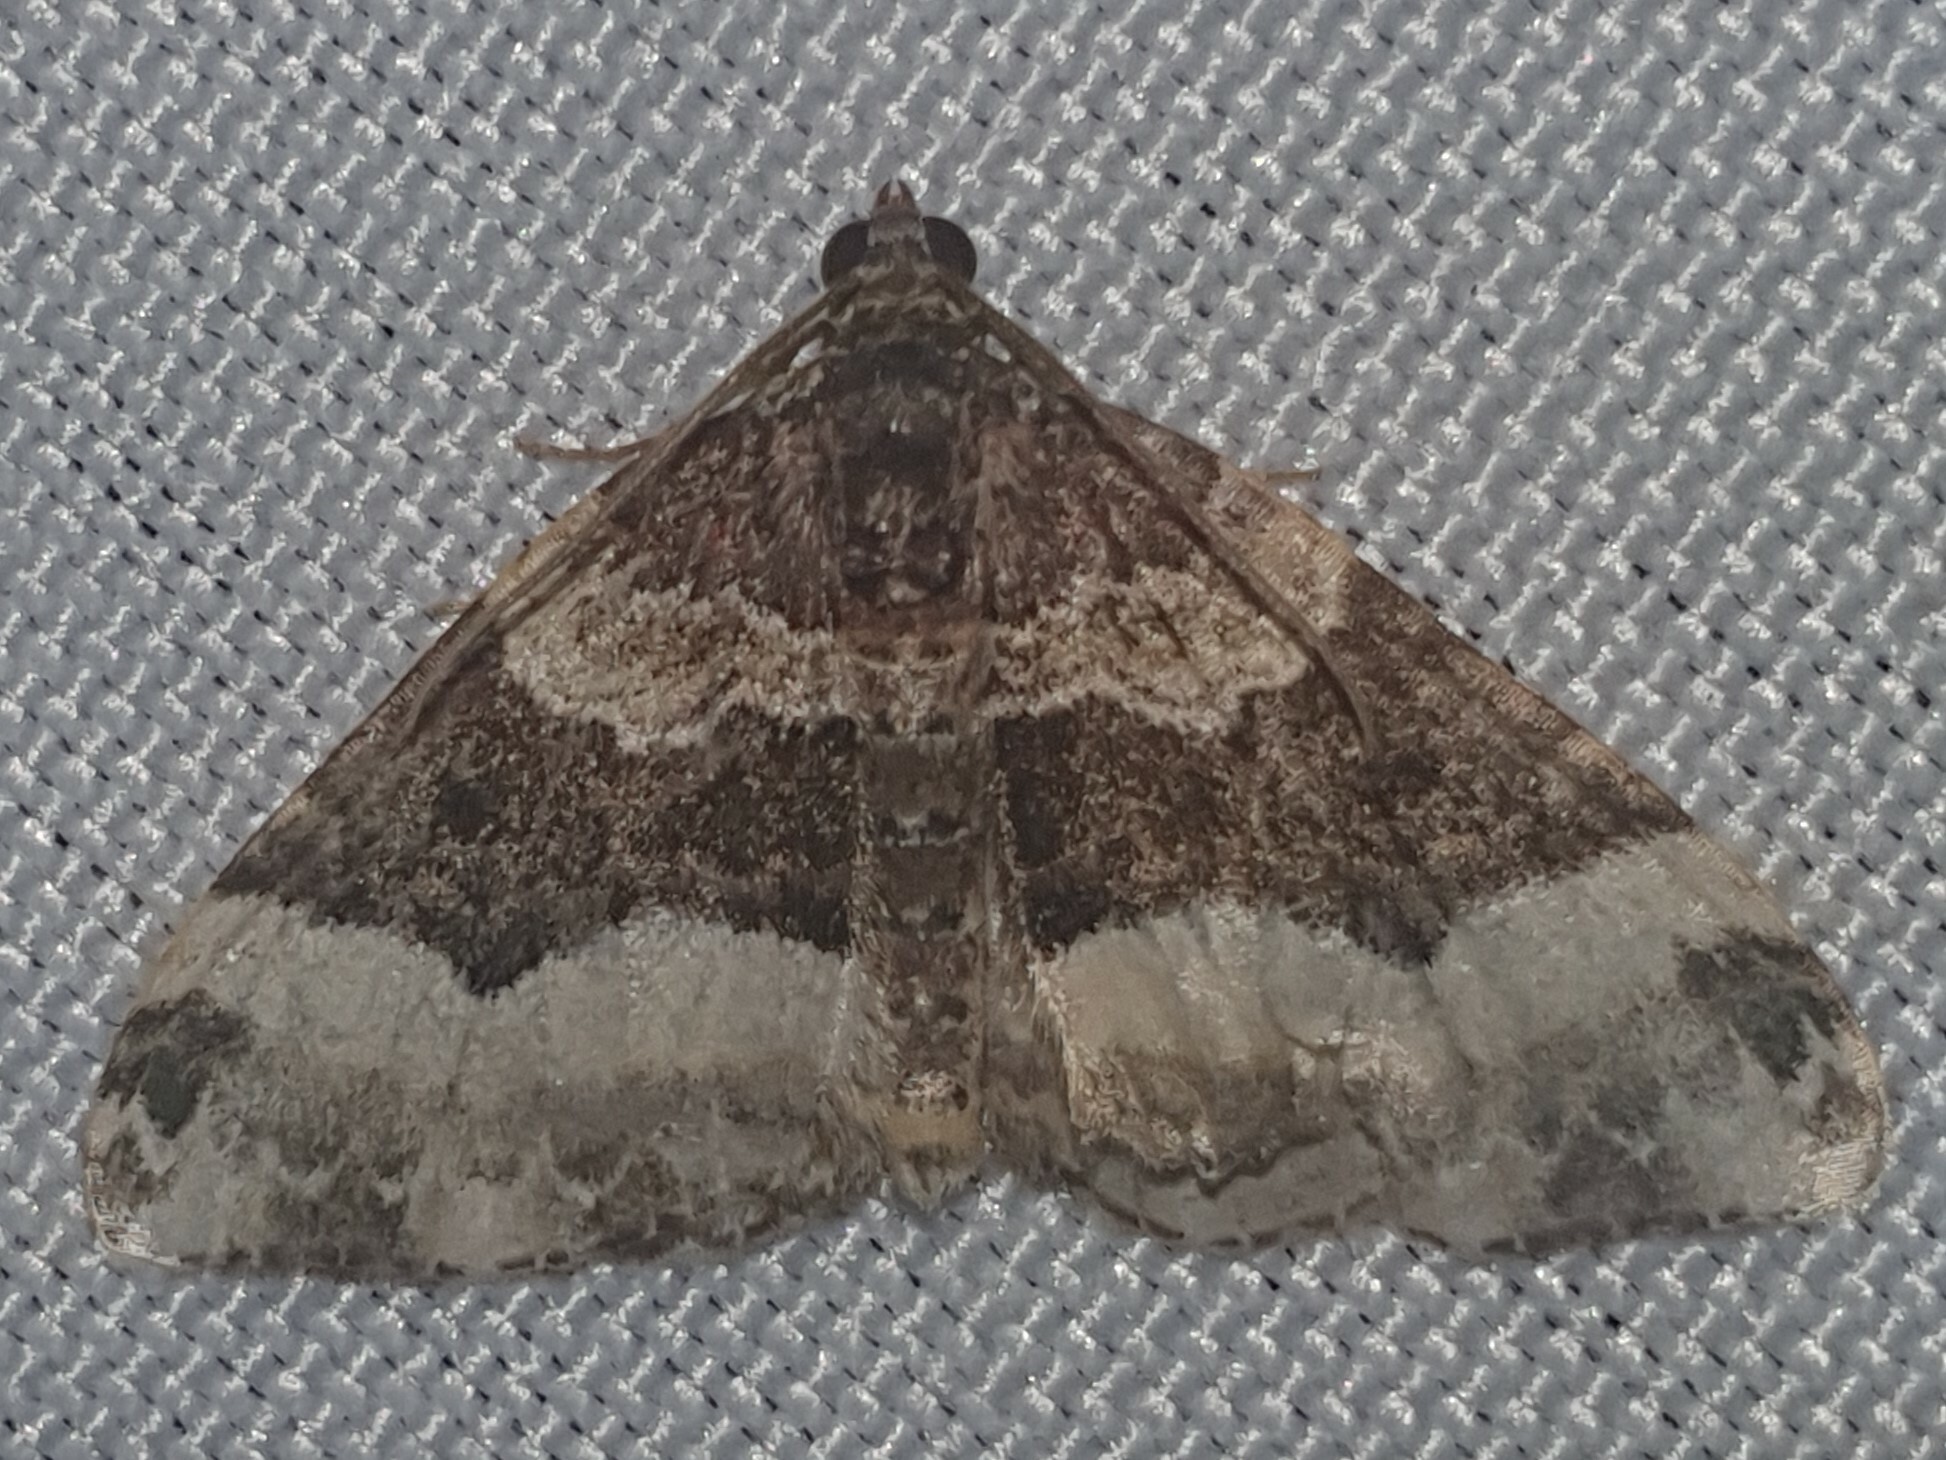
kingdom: Animalia
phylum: Arthropoda
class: Insecta
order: Lepidoptera
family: Geometridae
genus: Euphyia
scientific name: Euphyia unangulata
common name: Sharp-angled carpet
